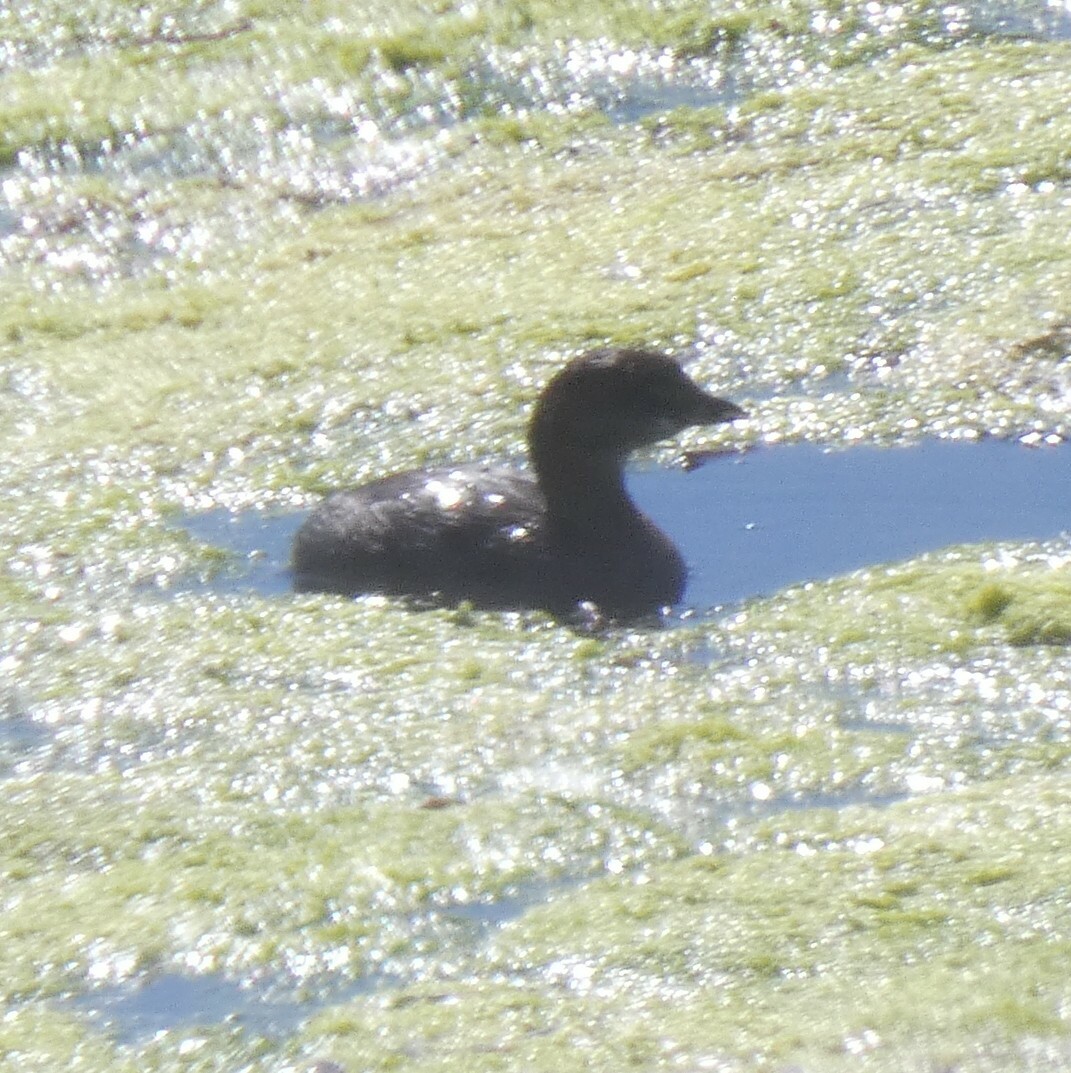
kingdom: Animalia
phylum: Chordata
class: Aves
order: Podicipediformes
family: Podicipedidae
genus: Podilymbus
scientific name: Podilymbus podiceps
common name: Pied-billed grebe
